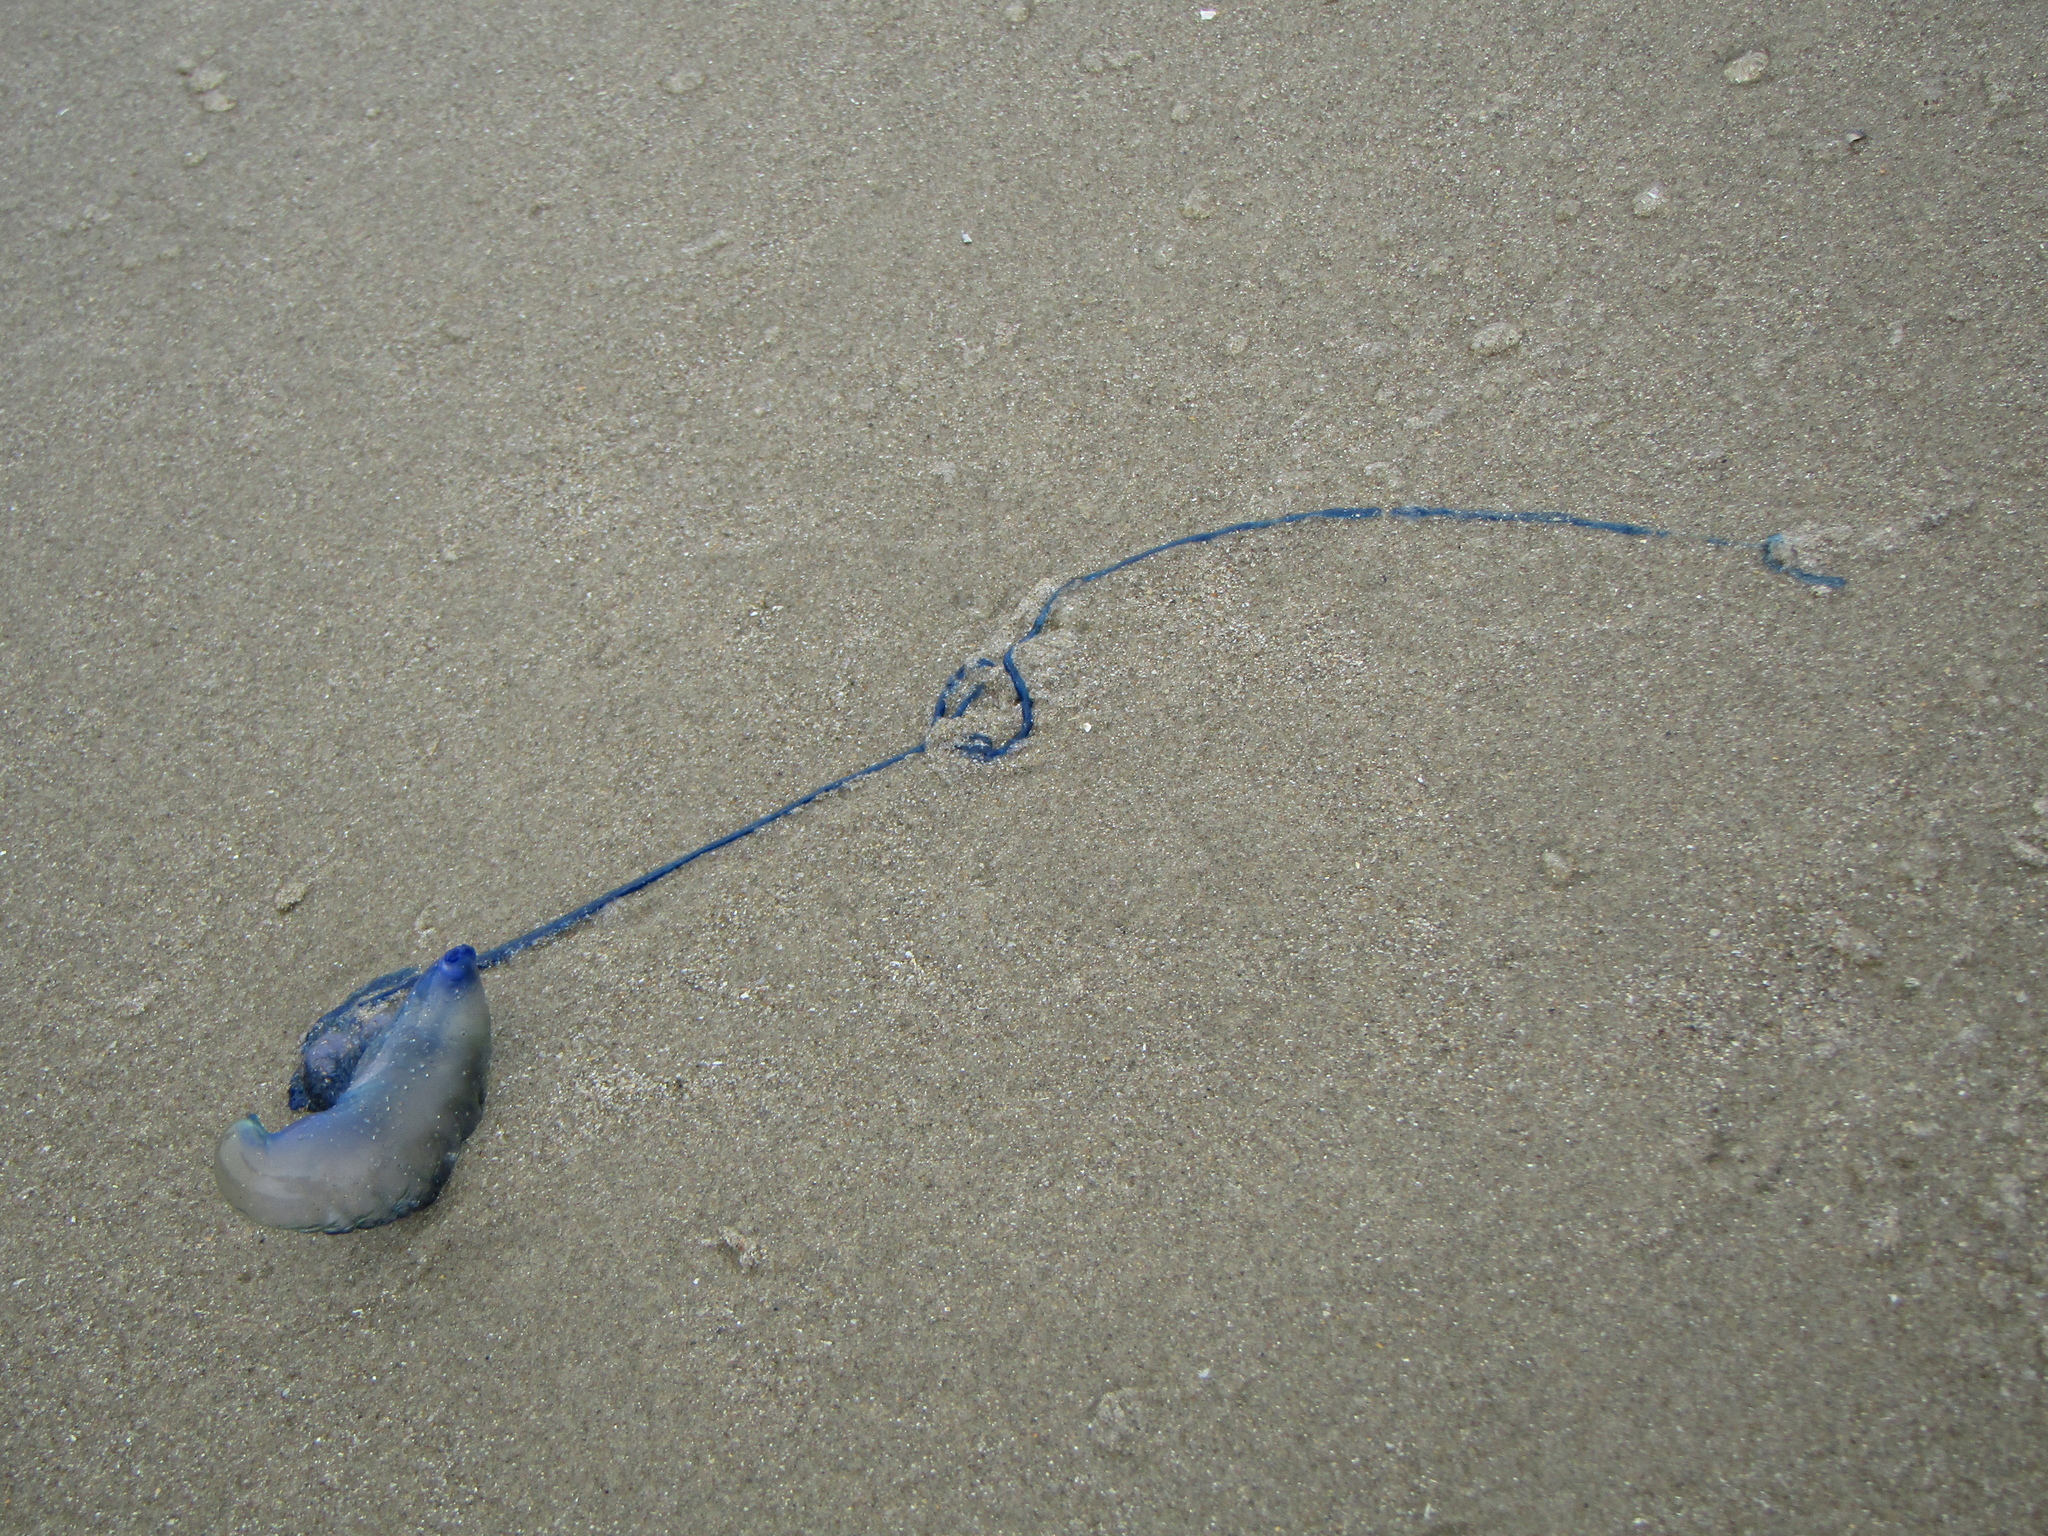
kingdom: Animalia
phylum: Cnidaria
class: Hydrozoa
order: Siphonophorae
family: Physaliidae
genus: Physalia
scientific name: Physalia physalis
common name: Portuguese man-of-war
